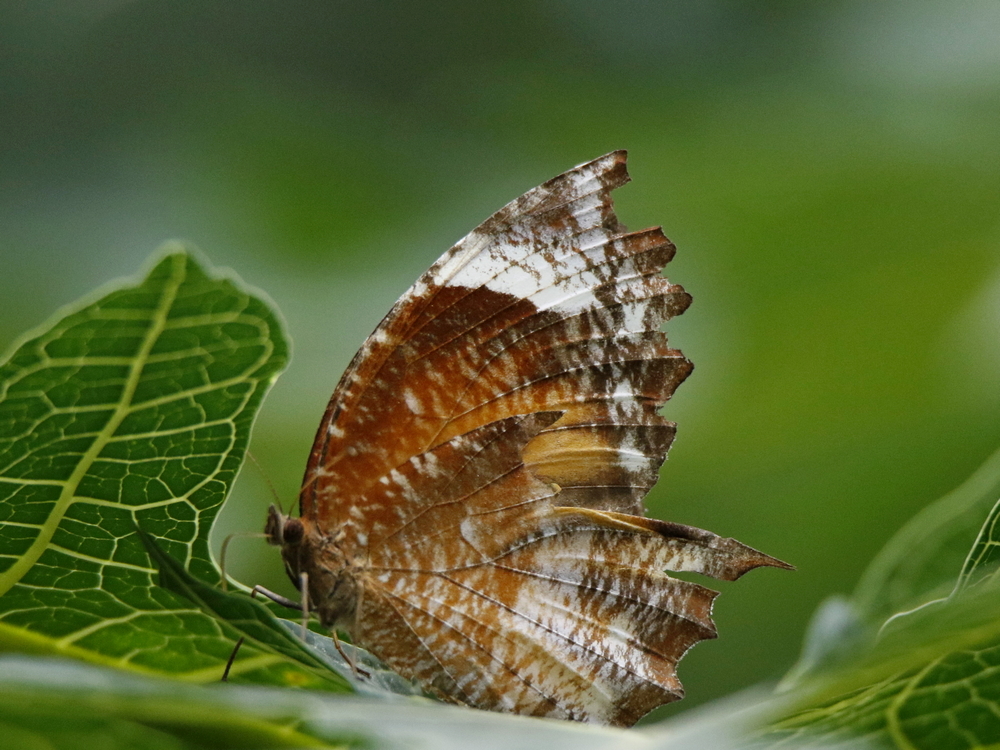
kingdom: Animalia
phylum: Arthropoda
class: Insecta
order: Lepidoptera
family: Nymphalidae
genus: Elymnias
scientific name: Elymnias caudata
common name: Tailed palmfly
